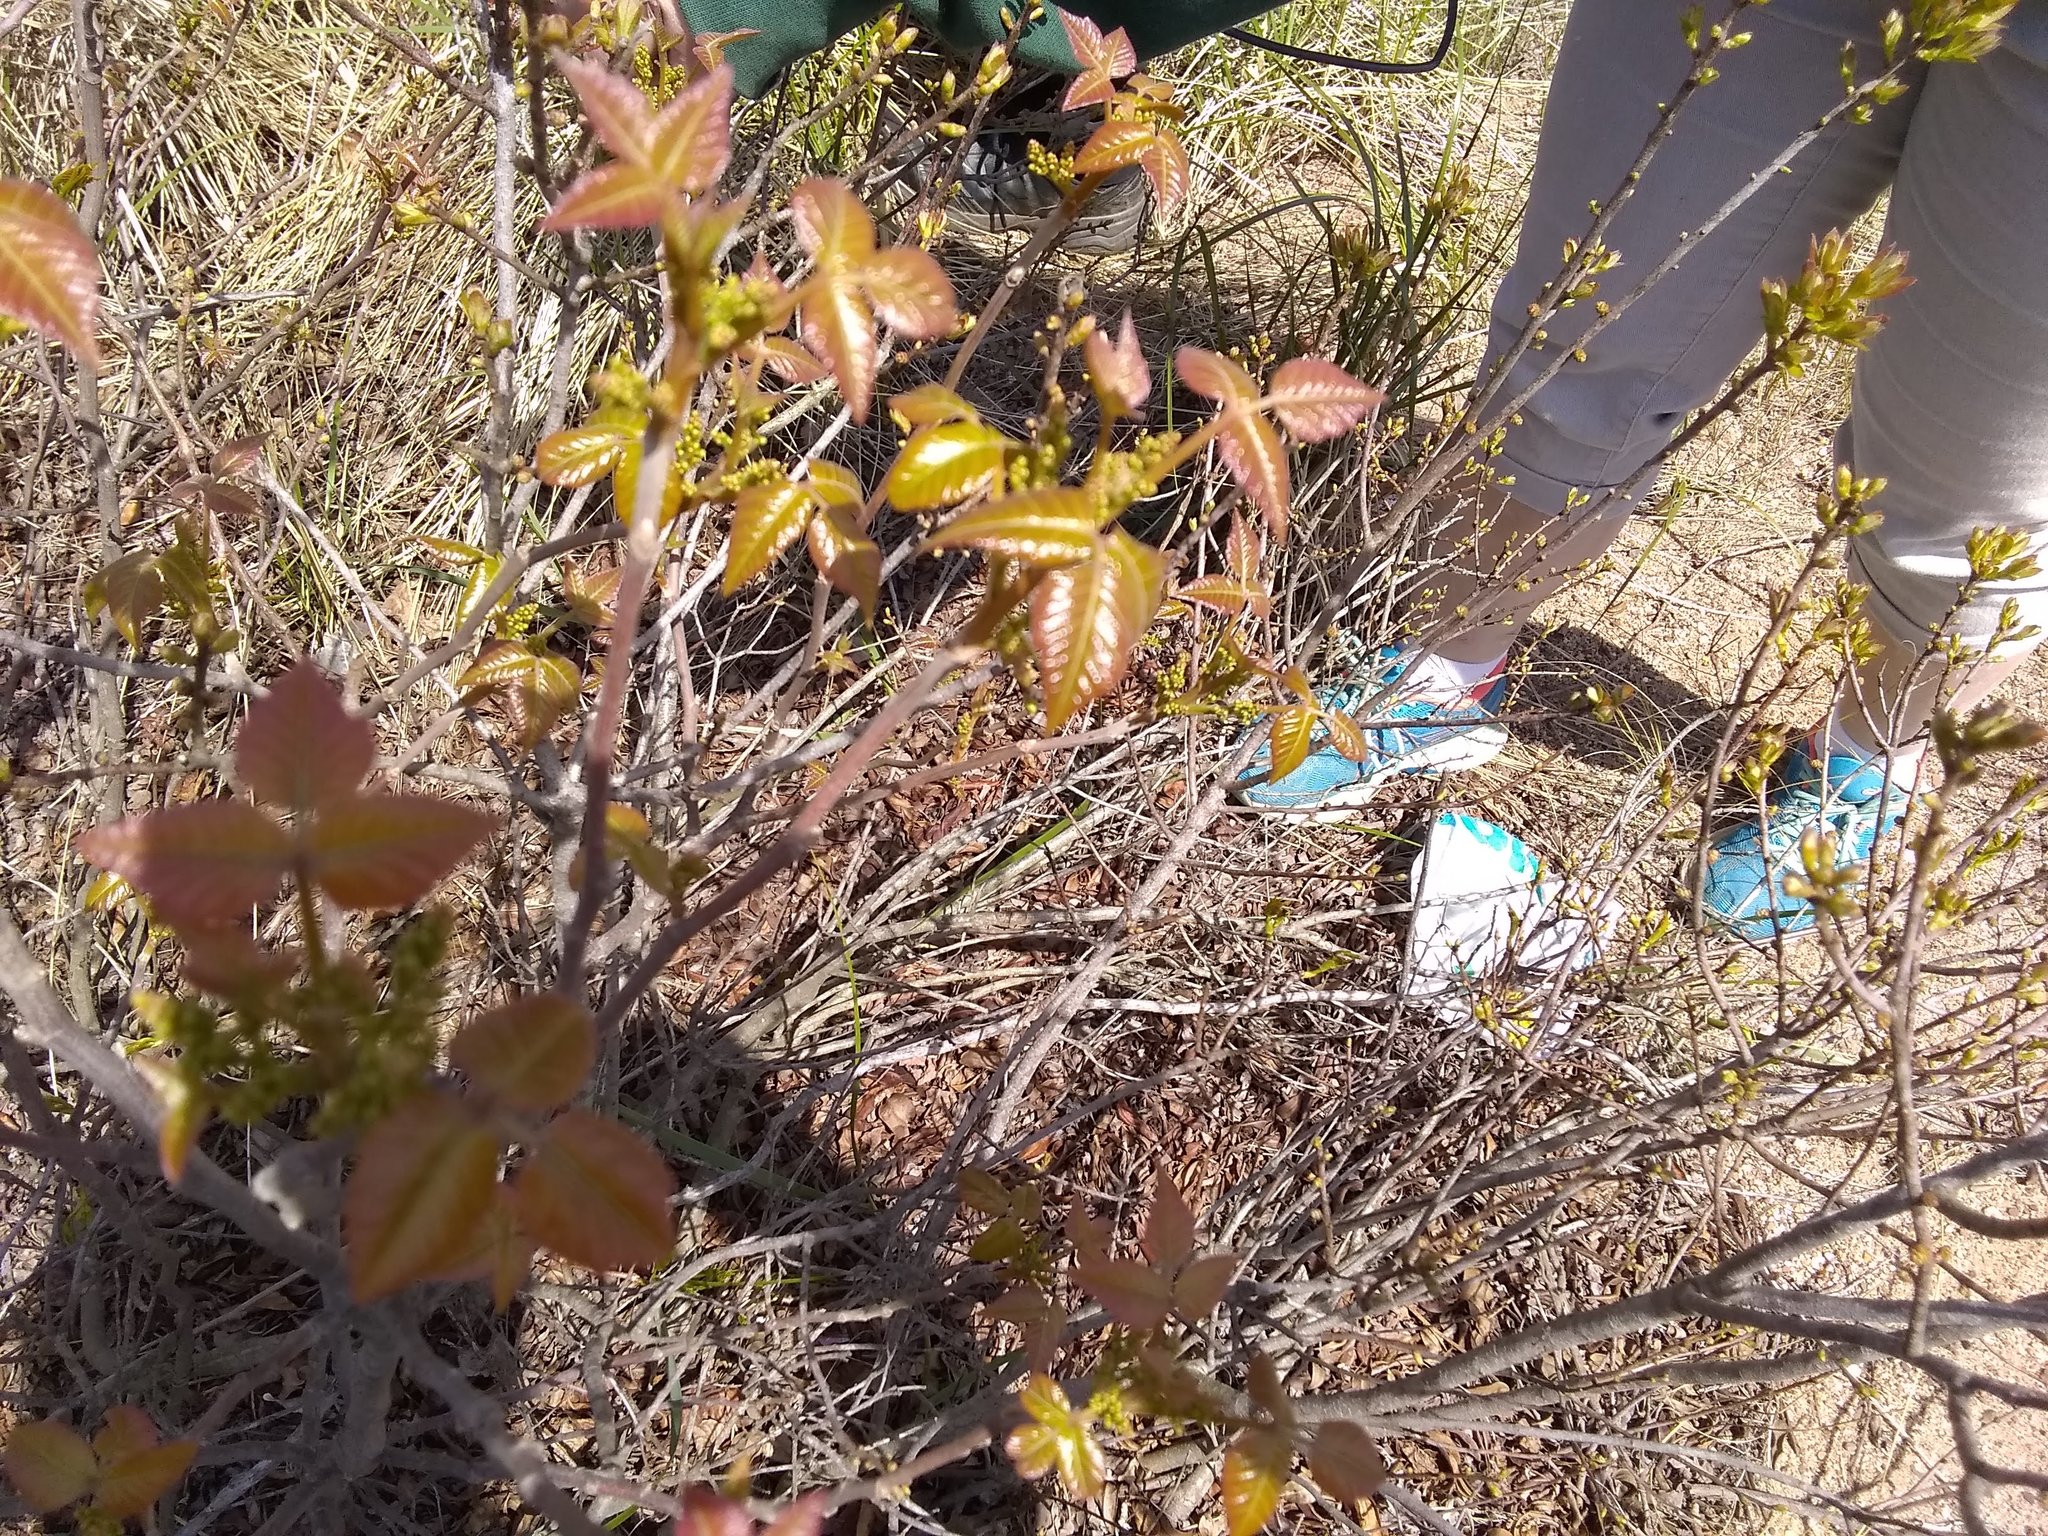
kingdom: Plantae
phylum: Tracheophyta
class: Magnoliopsida
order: Sapindales
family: Anacardiaceae
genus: Toxicodendron
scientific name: Toxicodendron radicans
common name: Poison ivy
